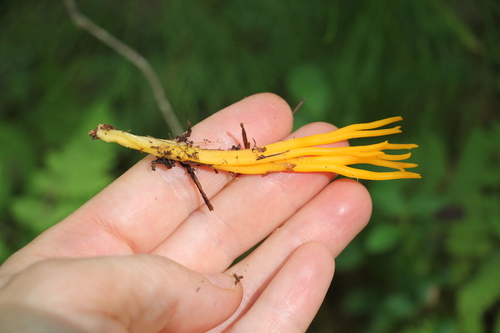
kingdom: Fungi
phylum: Basidiomycota
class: Dacrymycetes
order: Dacrymycetales
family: Dacrymycetaceae
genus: Calocera
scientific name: Calocera viscosa
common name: Yellow stagshorn
